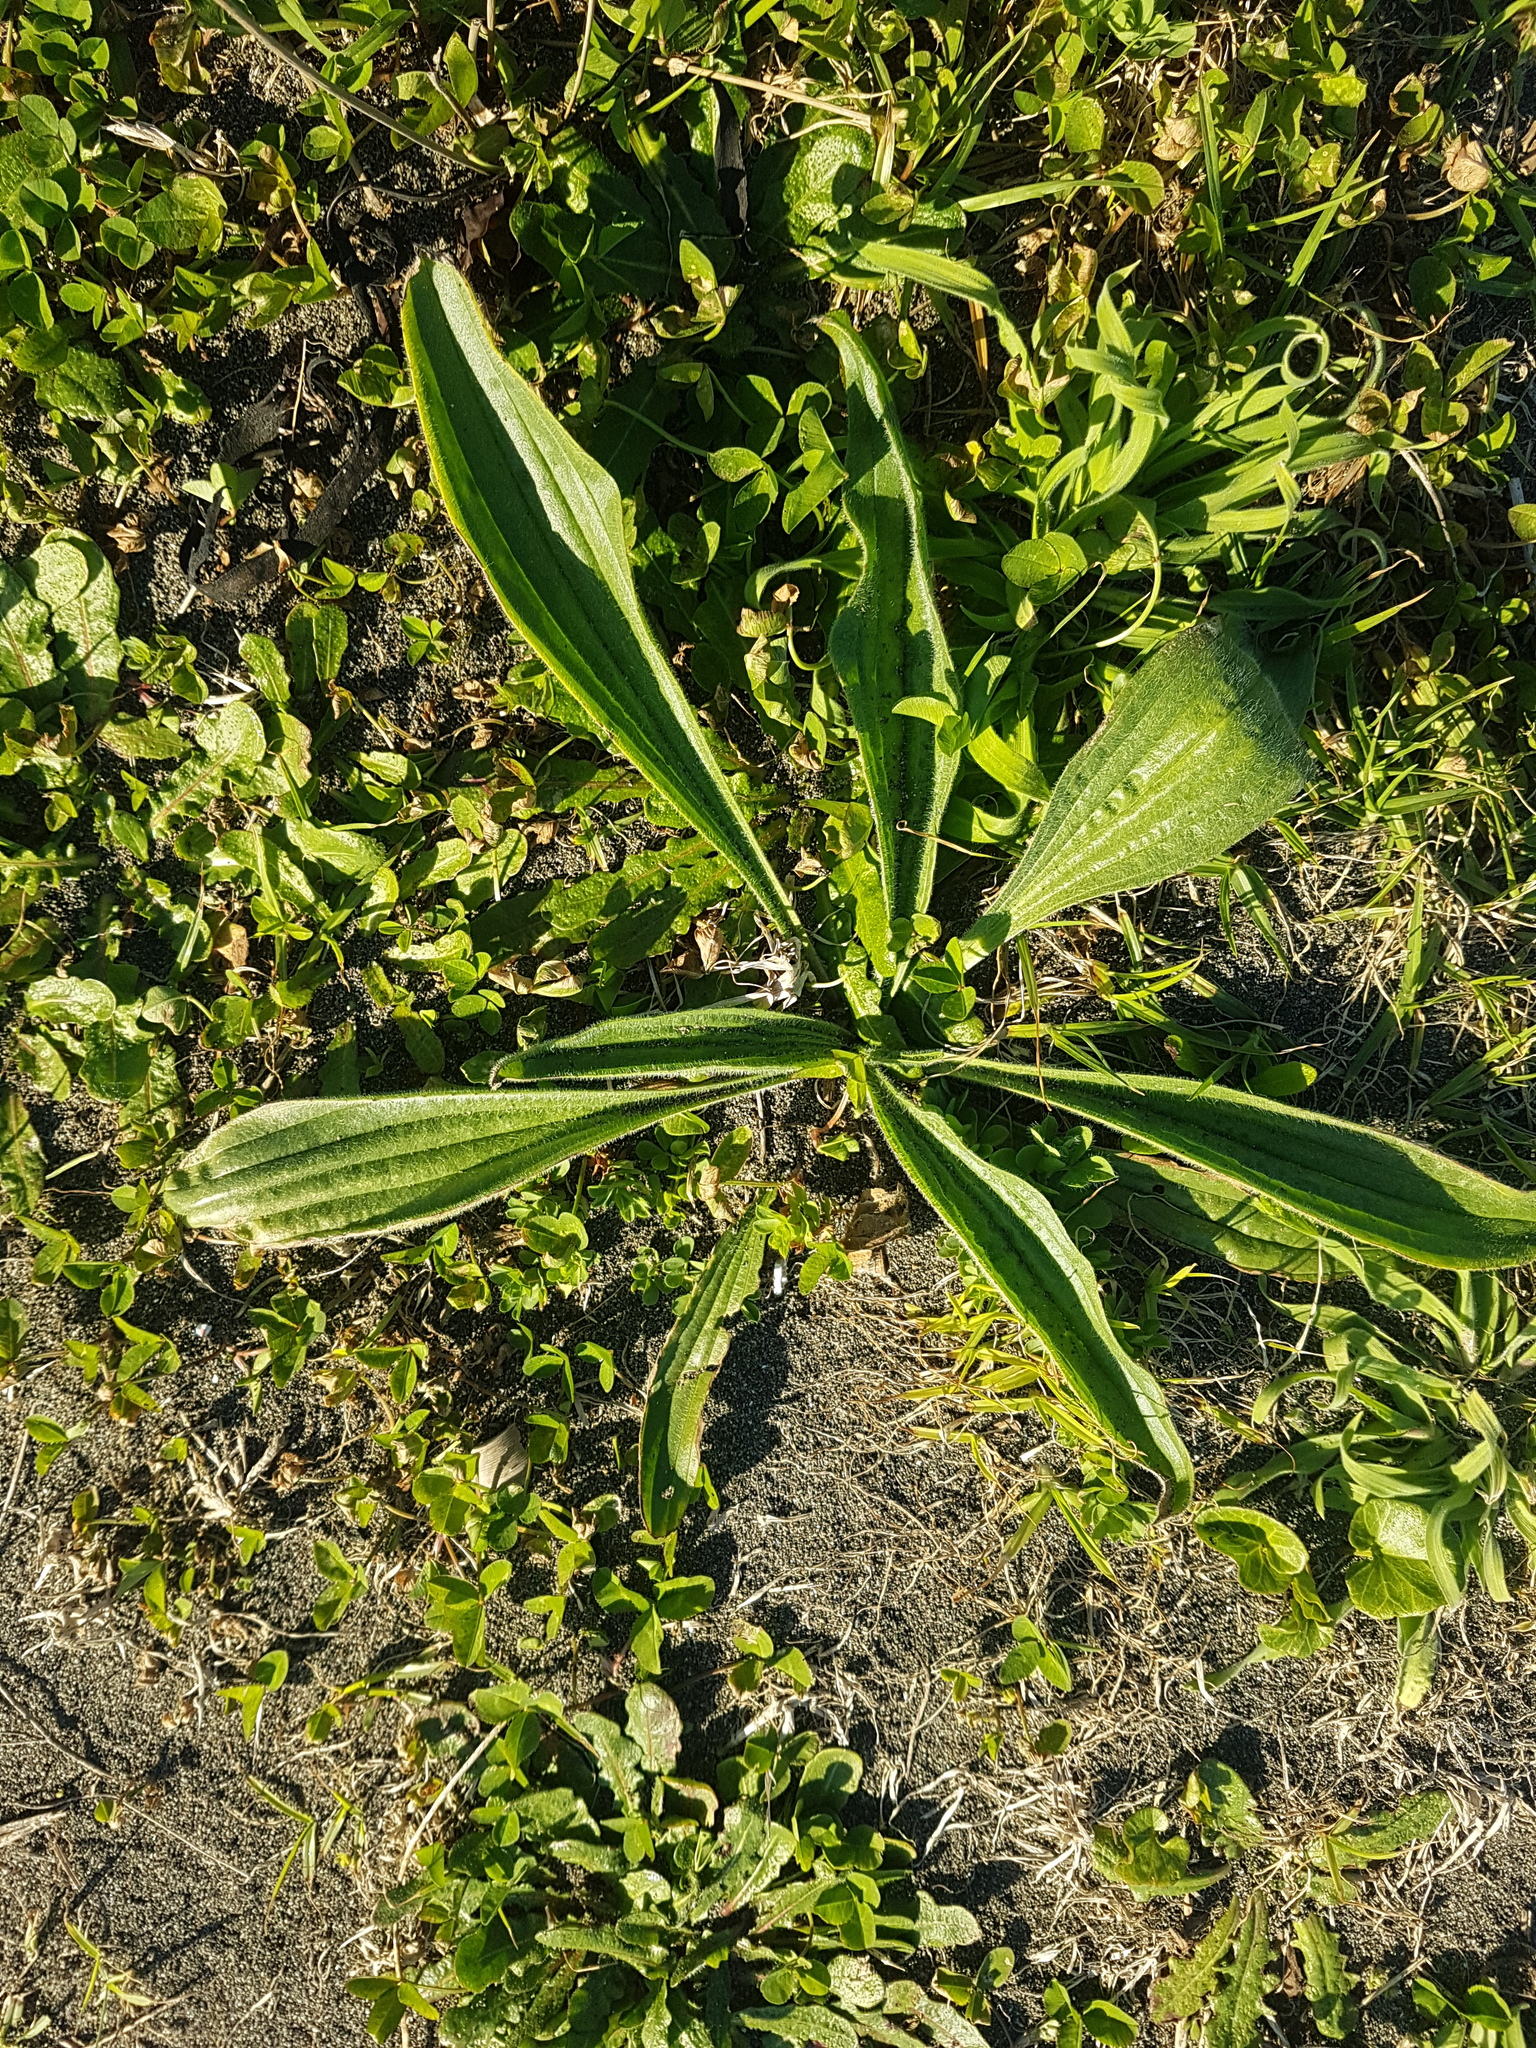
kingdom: Plantae
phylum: Tracheophyta
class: Magnoliopsida
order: Lamiales
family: Plantaginaceae
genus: Plantago
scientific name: Plantago lanceolata
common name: Ribwort plantain
